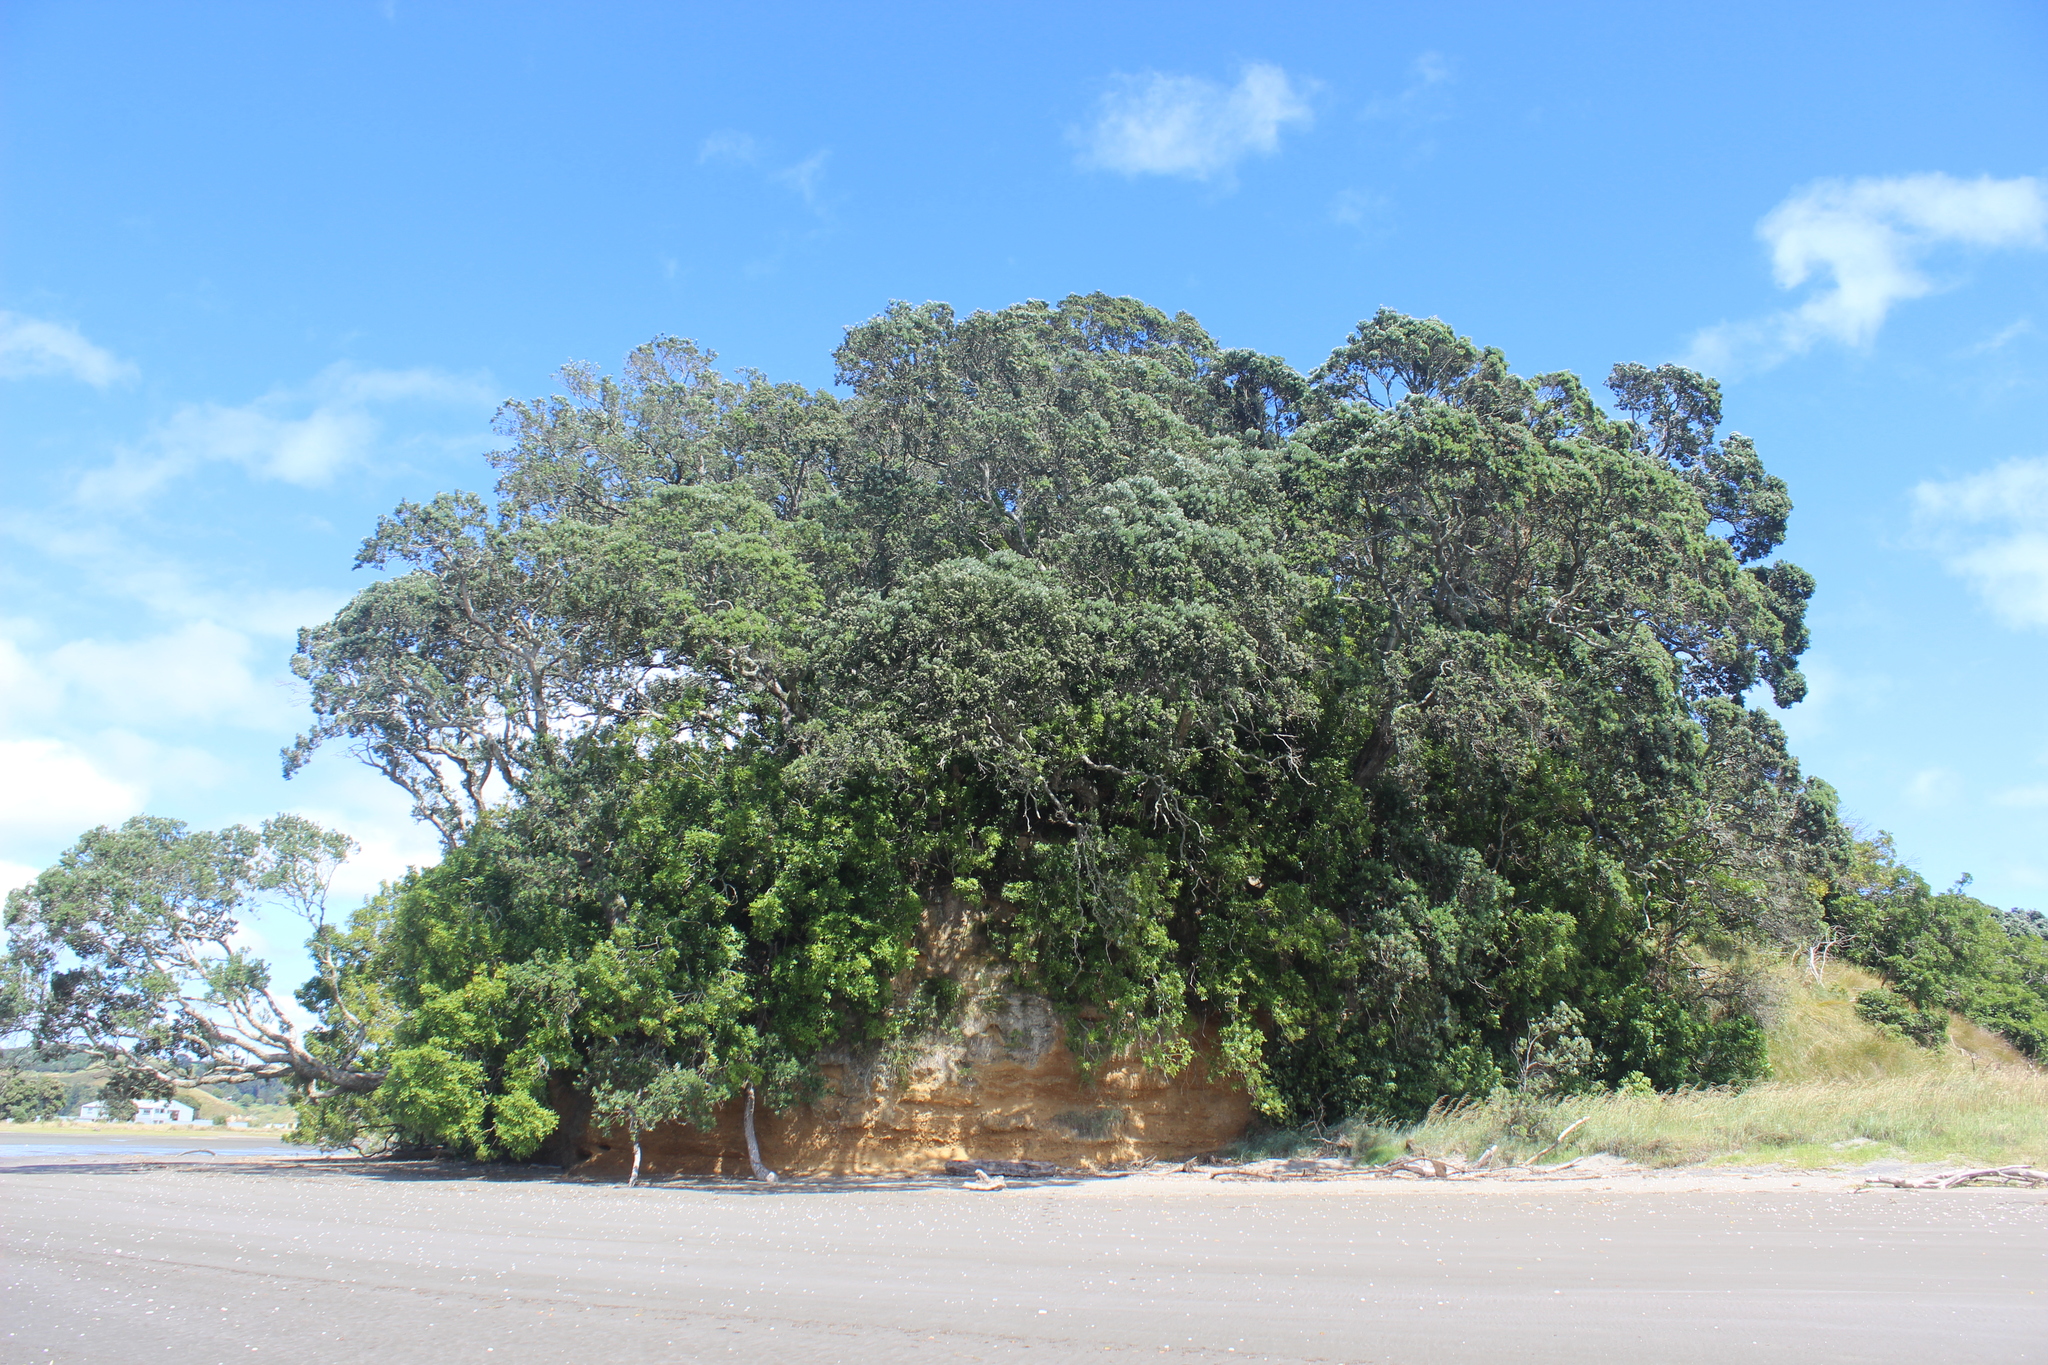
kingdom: Plantae
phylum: Tracheophyta
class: Magnoliopsida
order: Myrtales
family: Myrtaceae
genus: Metrosideros
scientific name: Metrosideros excelsa
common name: New zealand christmastree
